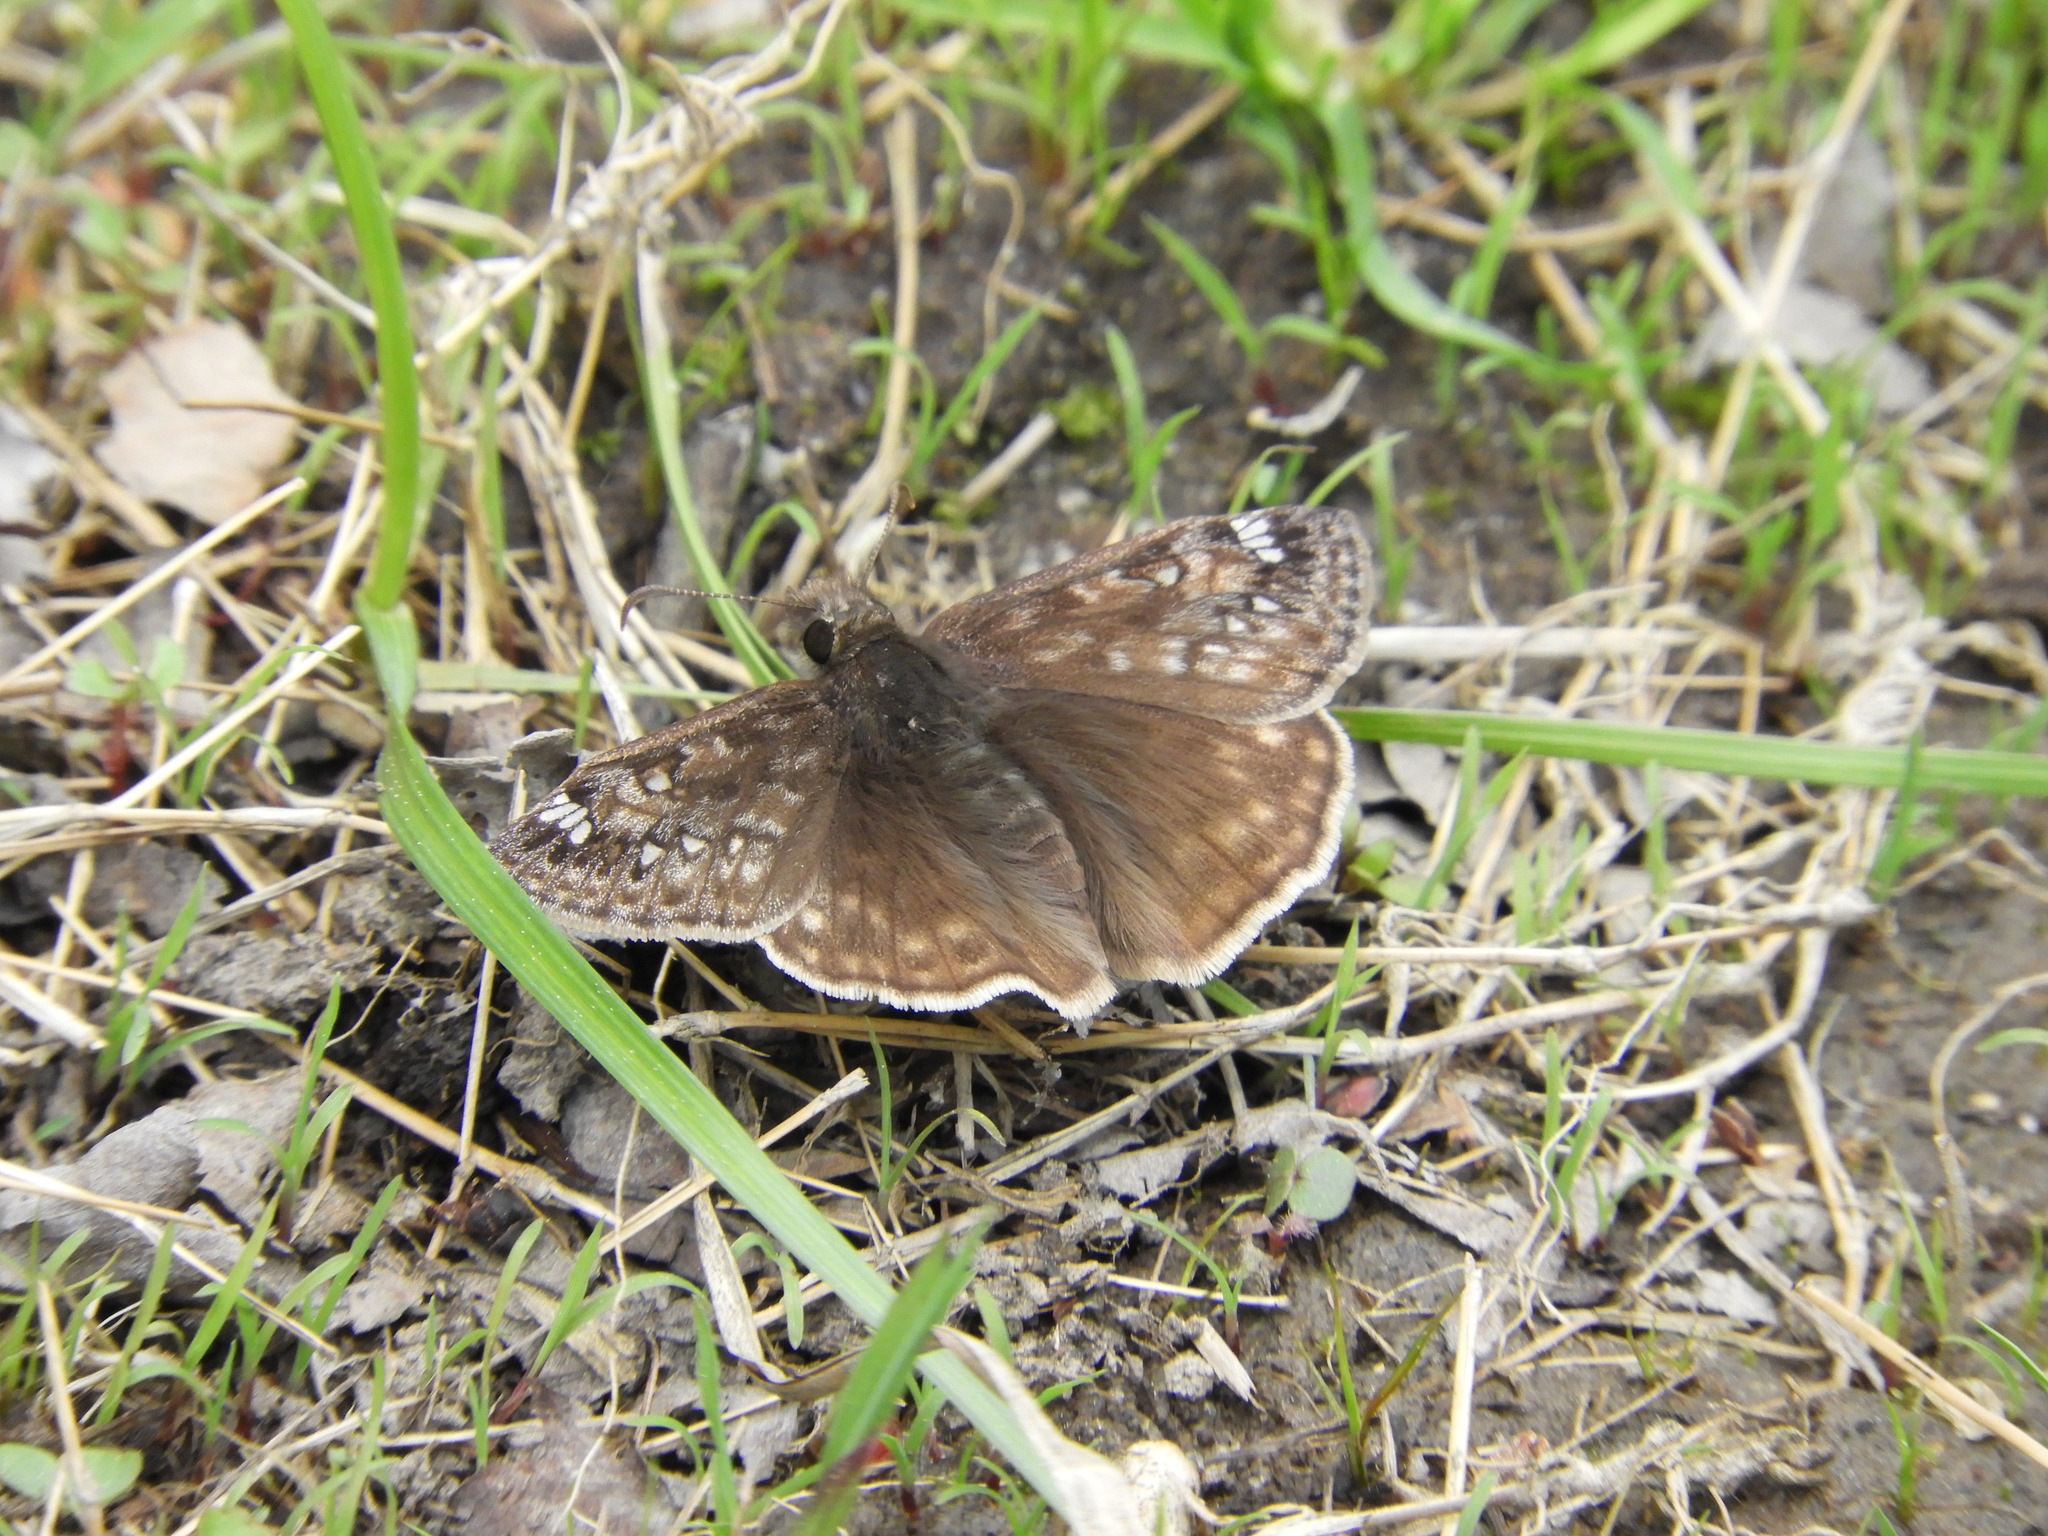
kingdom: Animalia
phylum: Arthropoda
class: Insecta
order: Lepidoptera
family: Hesperiidae
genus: Erynnis
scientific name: Erynnis juvenalis
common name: Juvenal's duskywing
